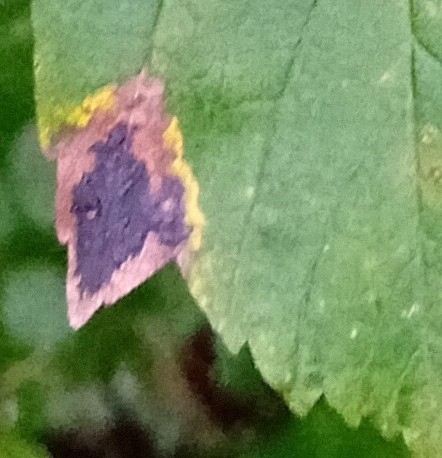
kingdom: Fungi
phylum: Ascomycota
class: Leotiomycetes
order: Rhytismatales
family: Rhytismataceae
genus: Rhytisma
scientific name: Rhytisma acerinum
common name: European tar spot
